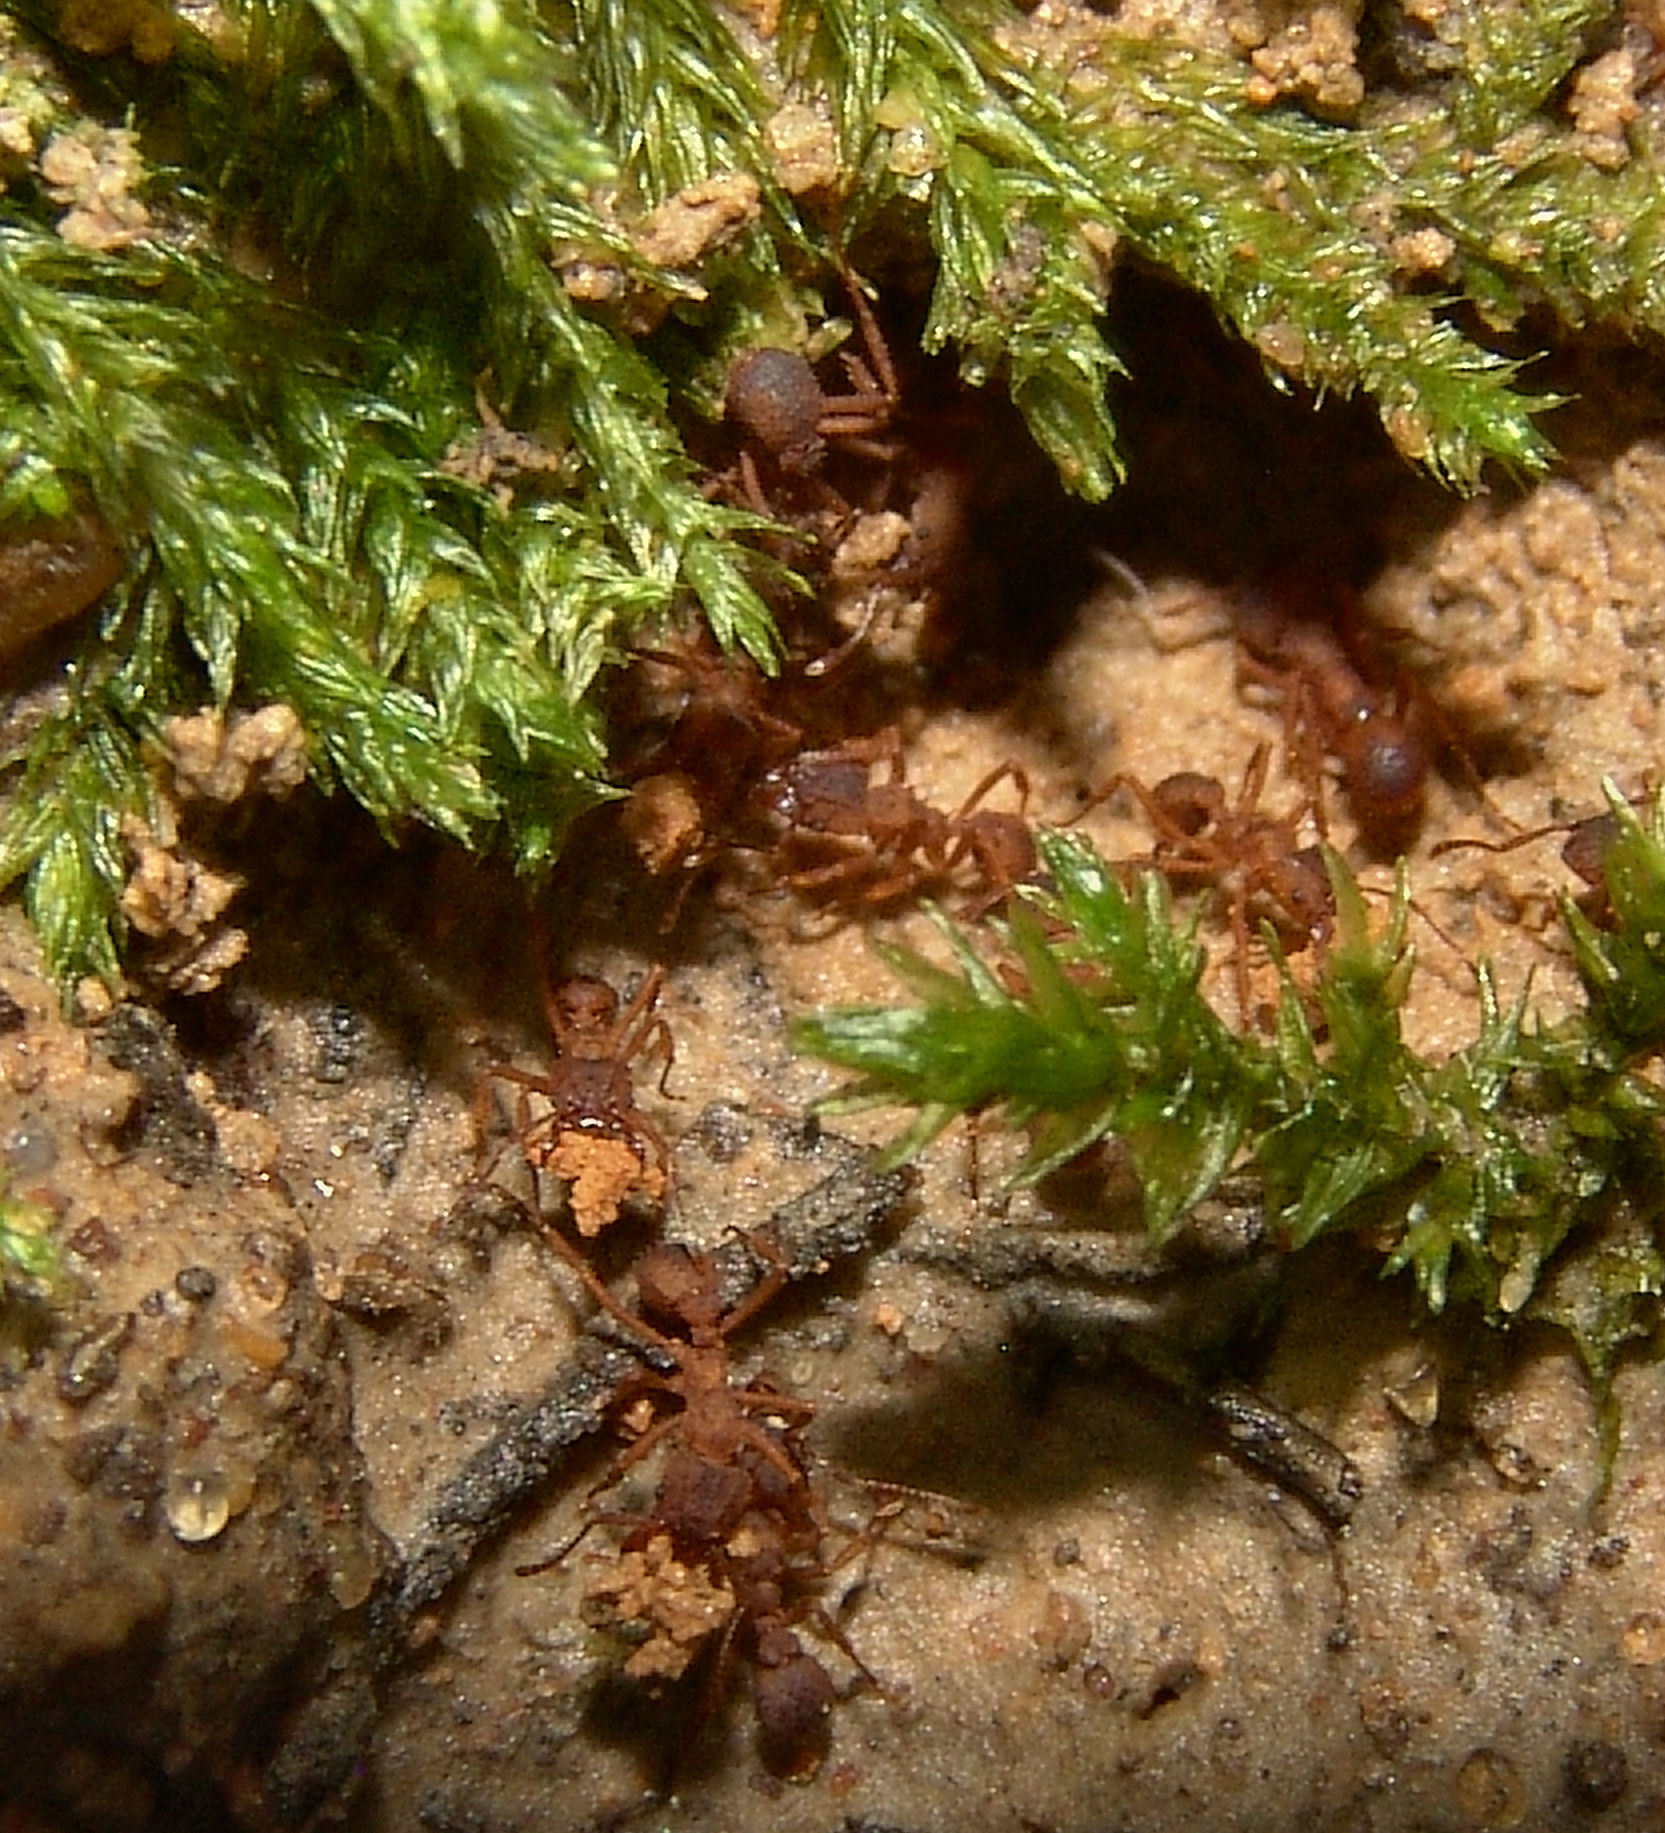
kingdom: Animalia
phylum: Arthropoda
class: Insecta
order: Hymenoptera
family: Formicidae
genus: Trachymyrmex
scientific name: Trachymyrmex septentrionalis
